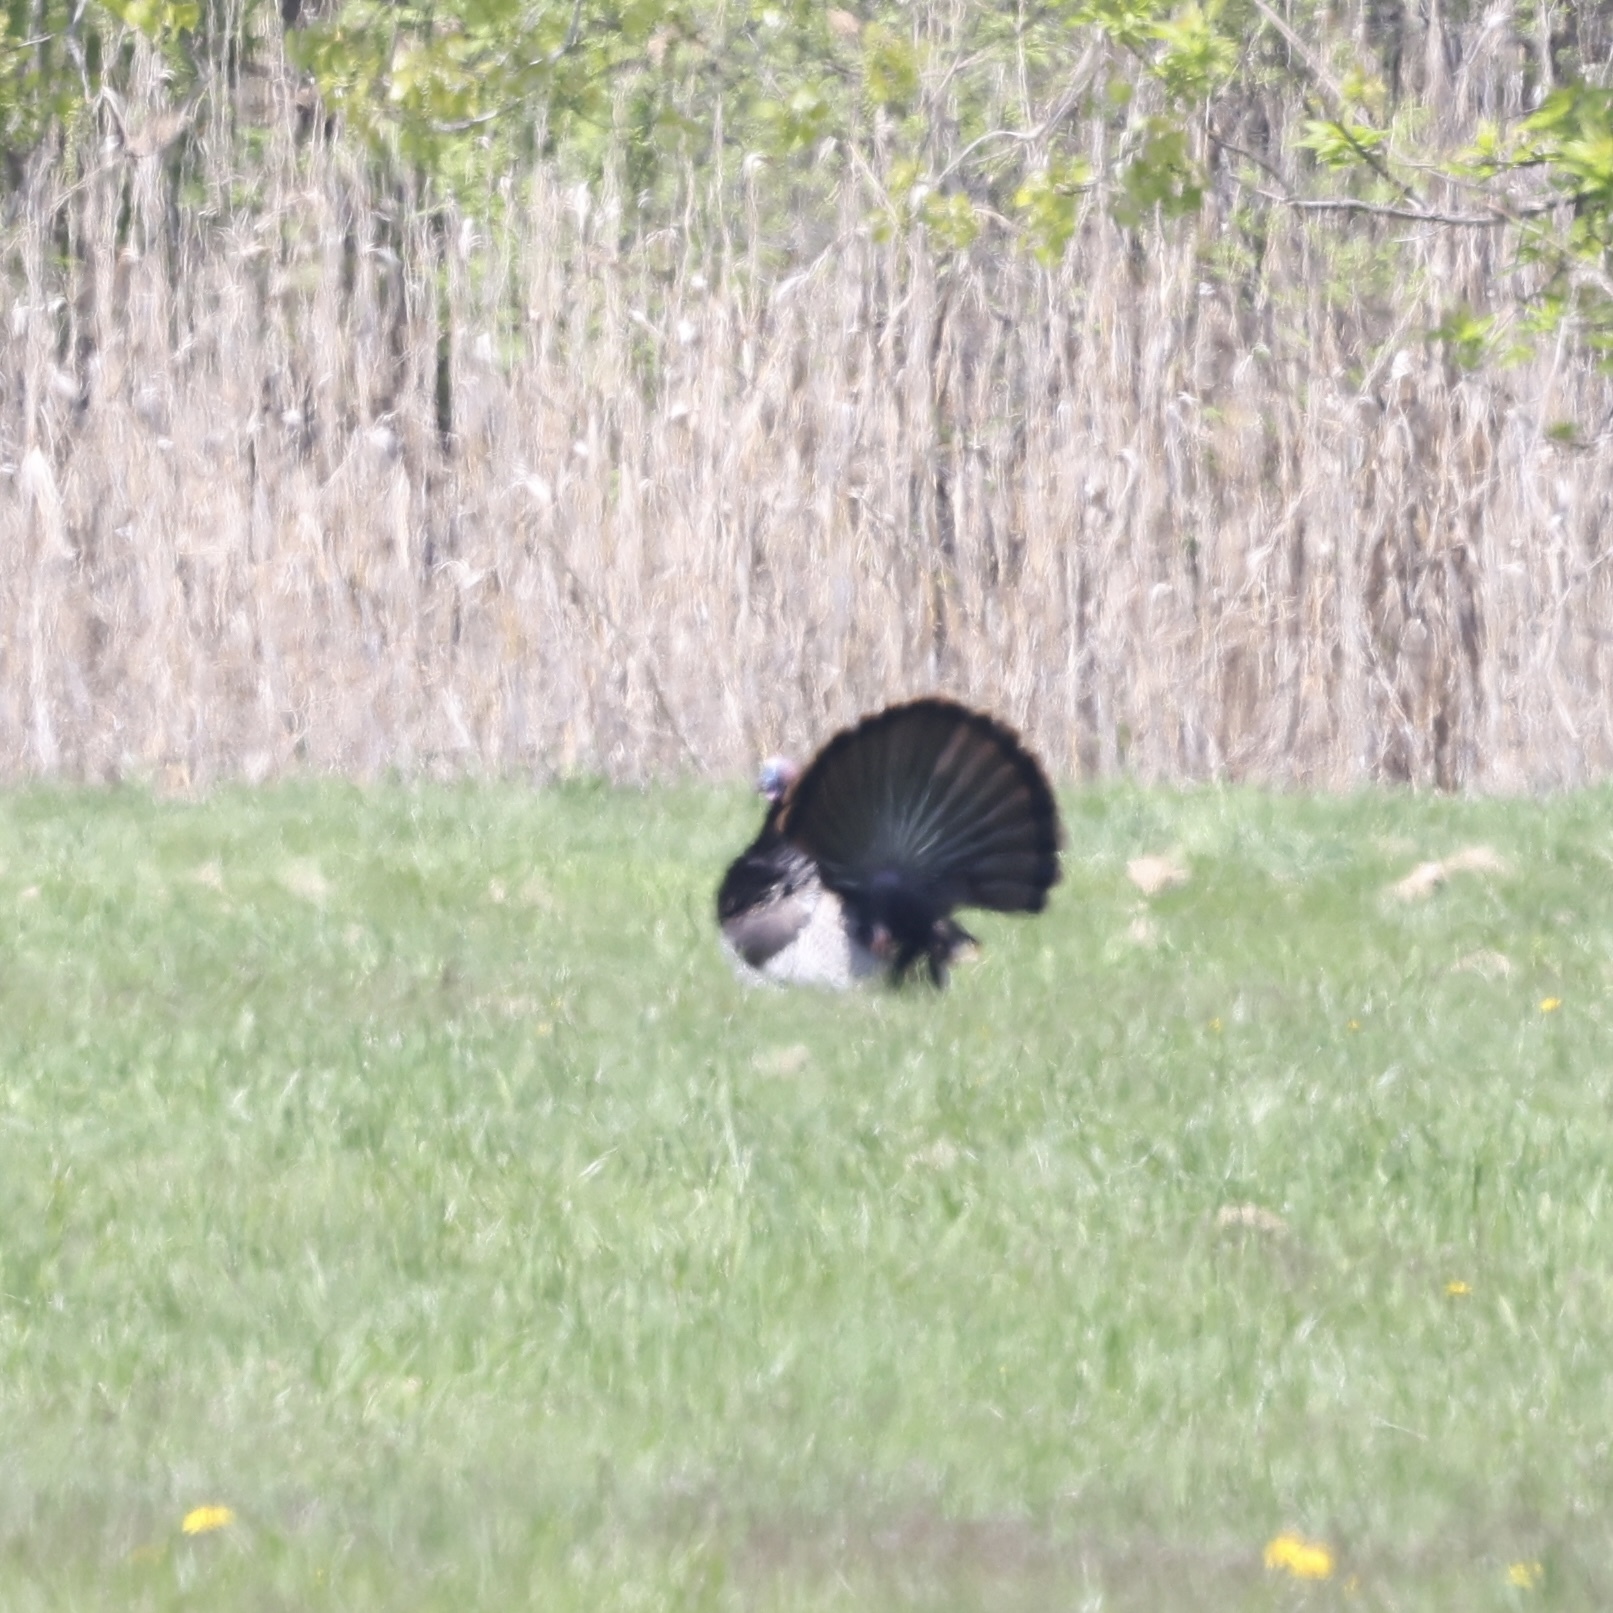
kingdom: Animalia
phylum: Chordata
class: Aves
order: Galliformes
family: Phasianidae
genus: Meleagris
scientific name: Meleagris gallopavo
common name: Wild turkey
